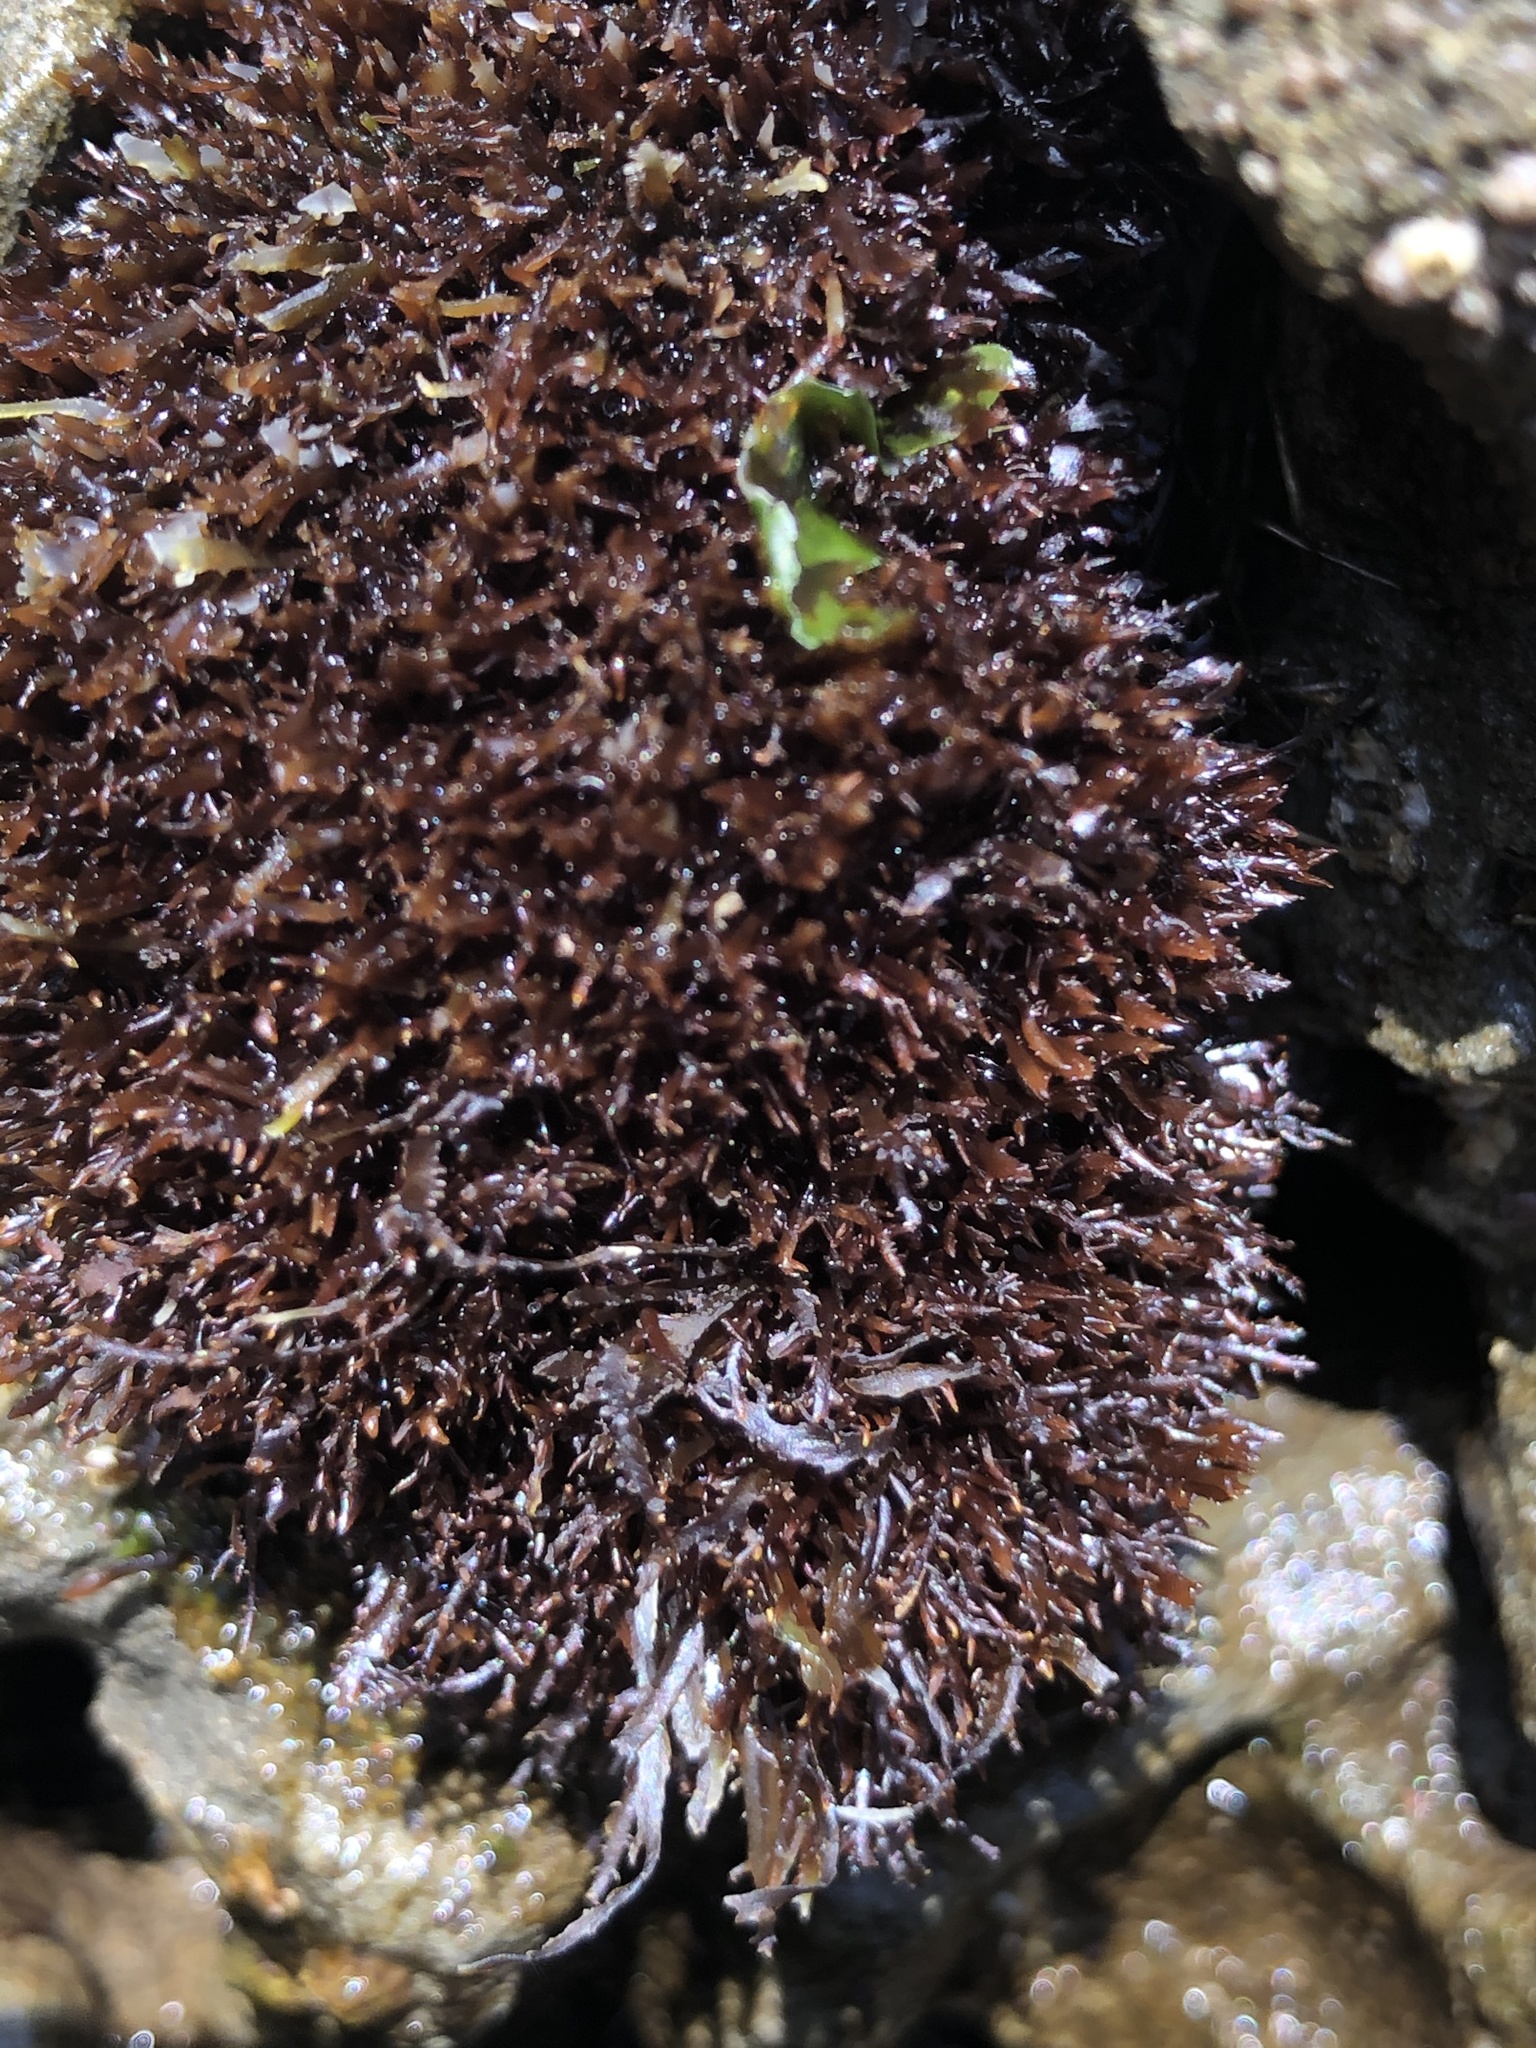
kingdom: Plantae
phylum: Rhodophyta
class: Florideophyceae
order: Gelidiales
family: Gelidiaceae
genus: Gelidium
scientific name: Gelidium coulteri
